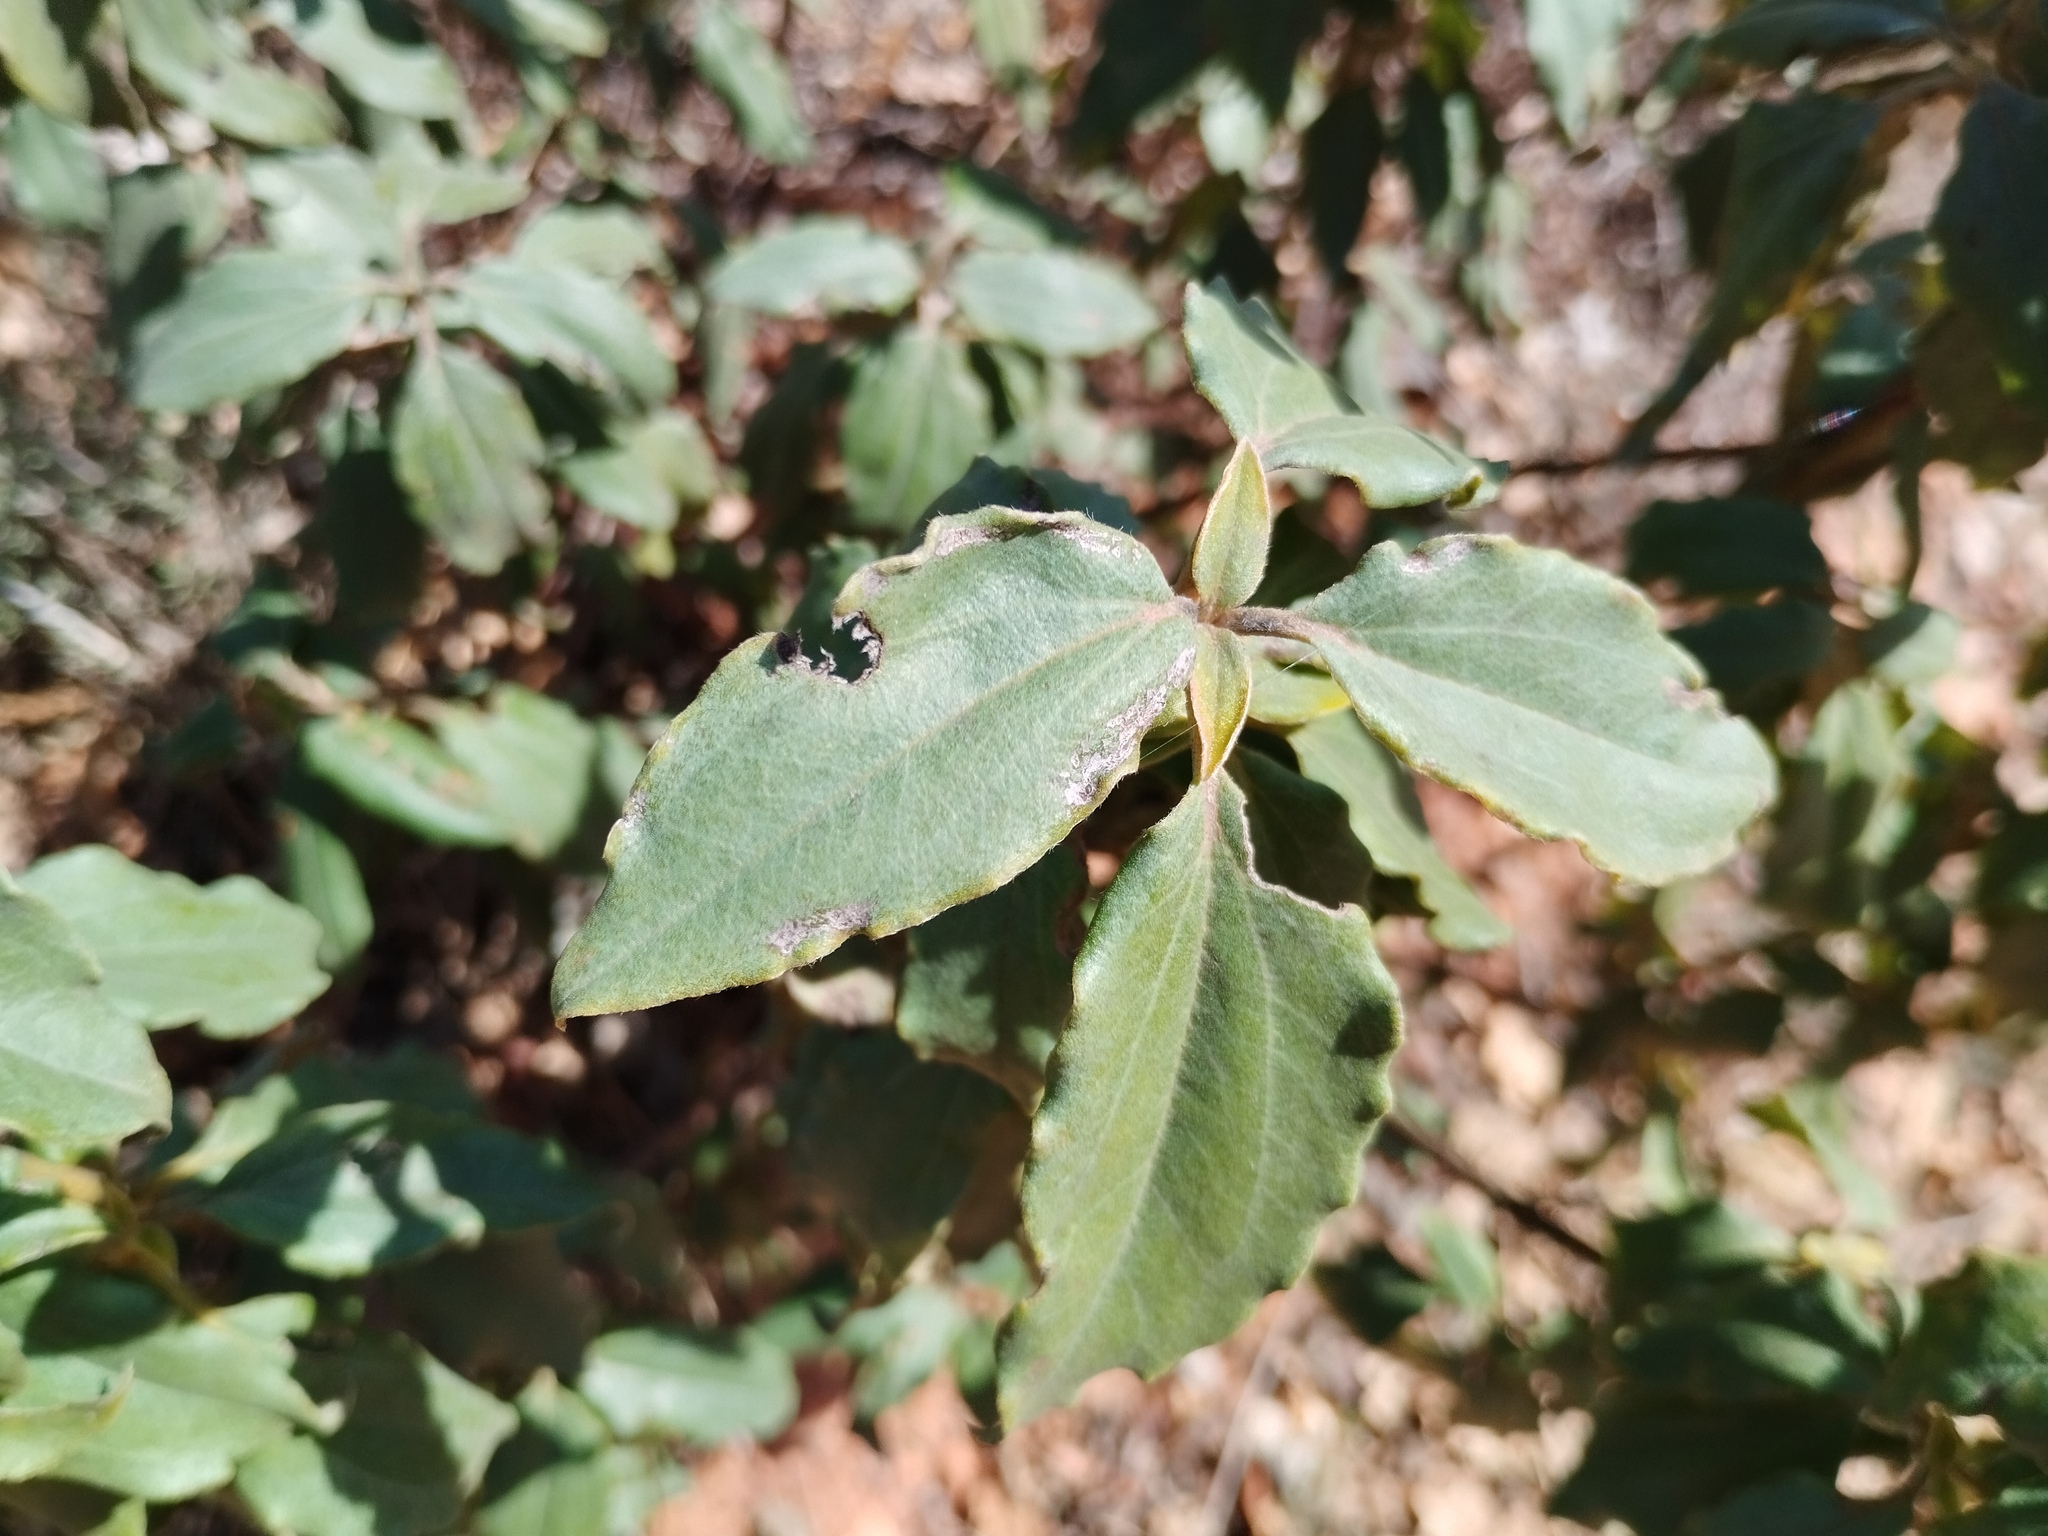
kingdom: Plantae
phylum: Tracheophyta
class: Magnoliopsida
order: Malvales
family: Cistaceae
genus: Cistus
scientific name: Cistus laurifolius
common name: Laurel-leaved cistus
